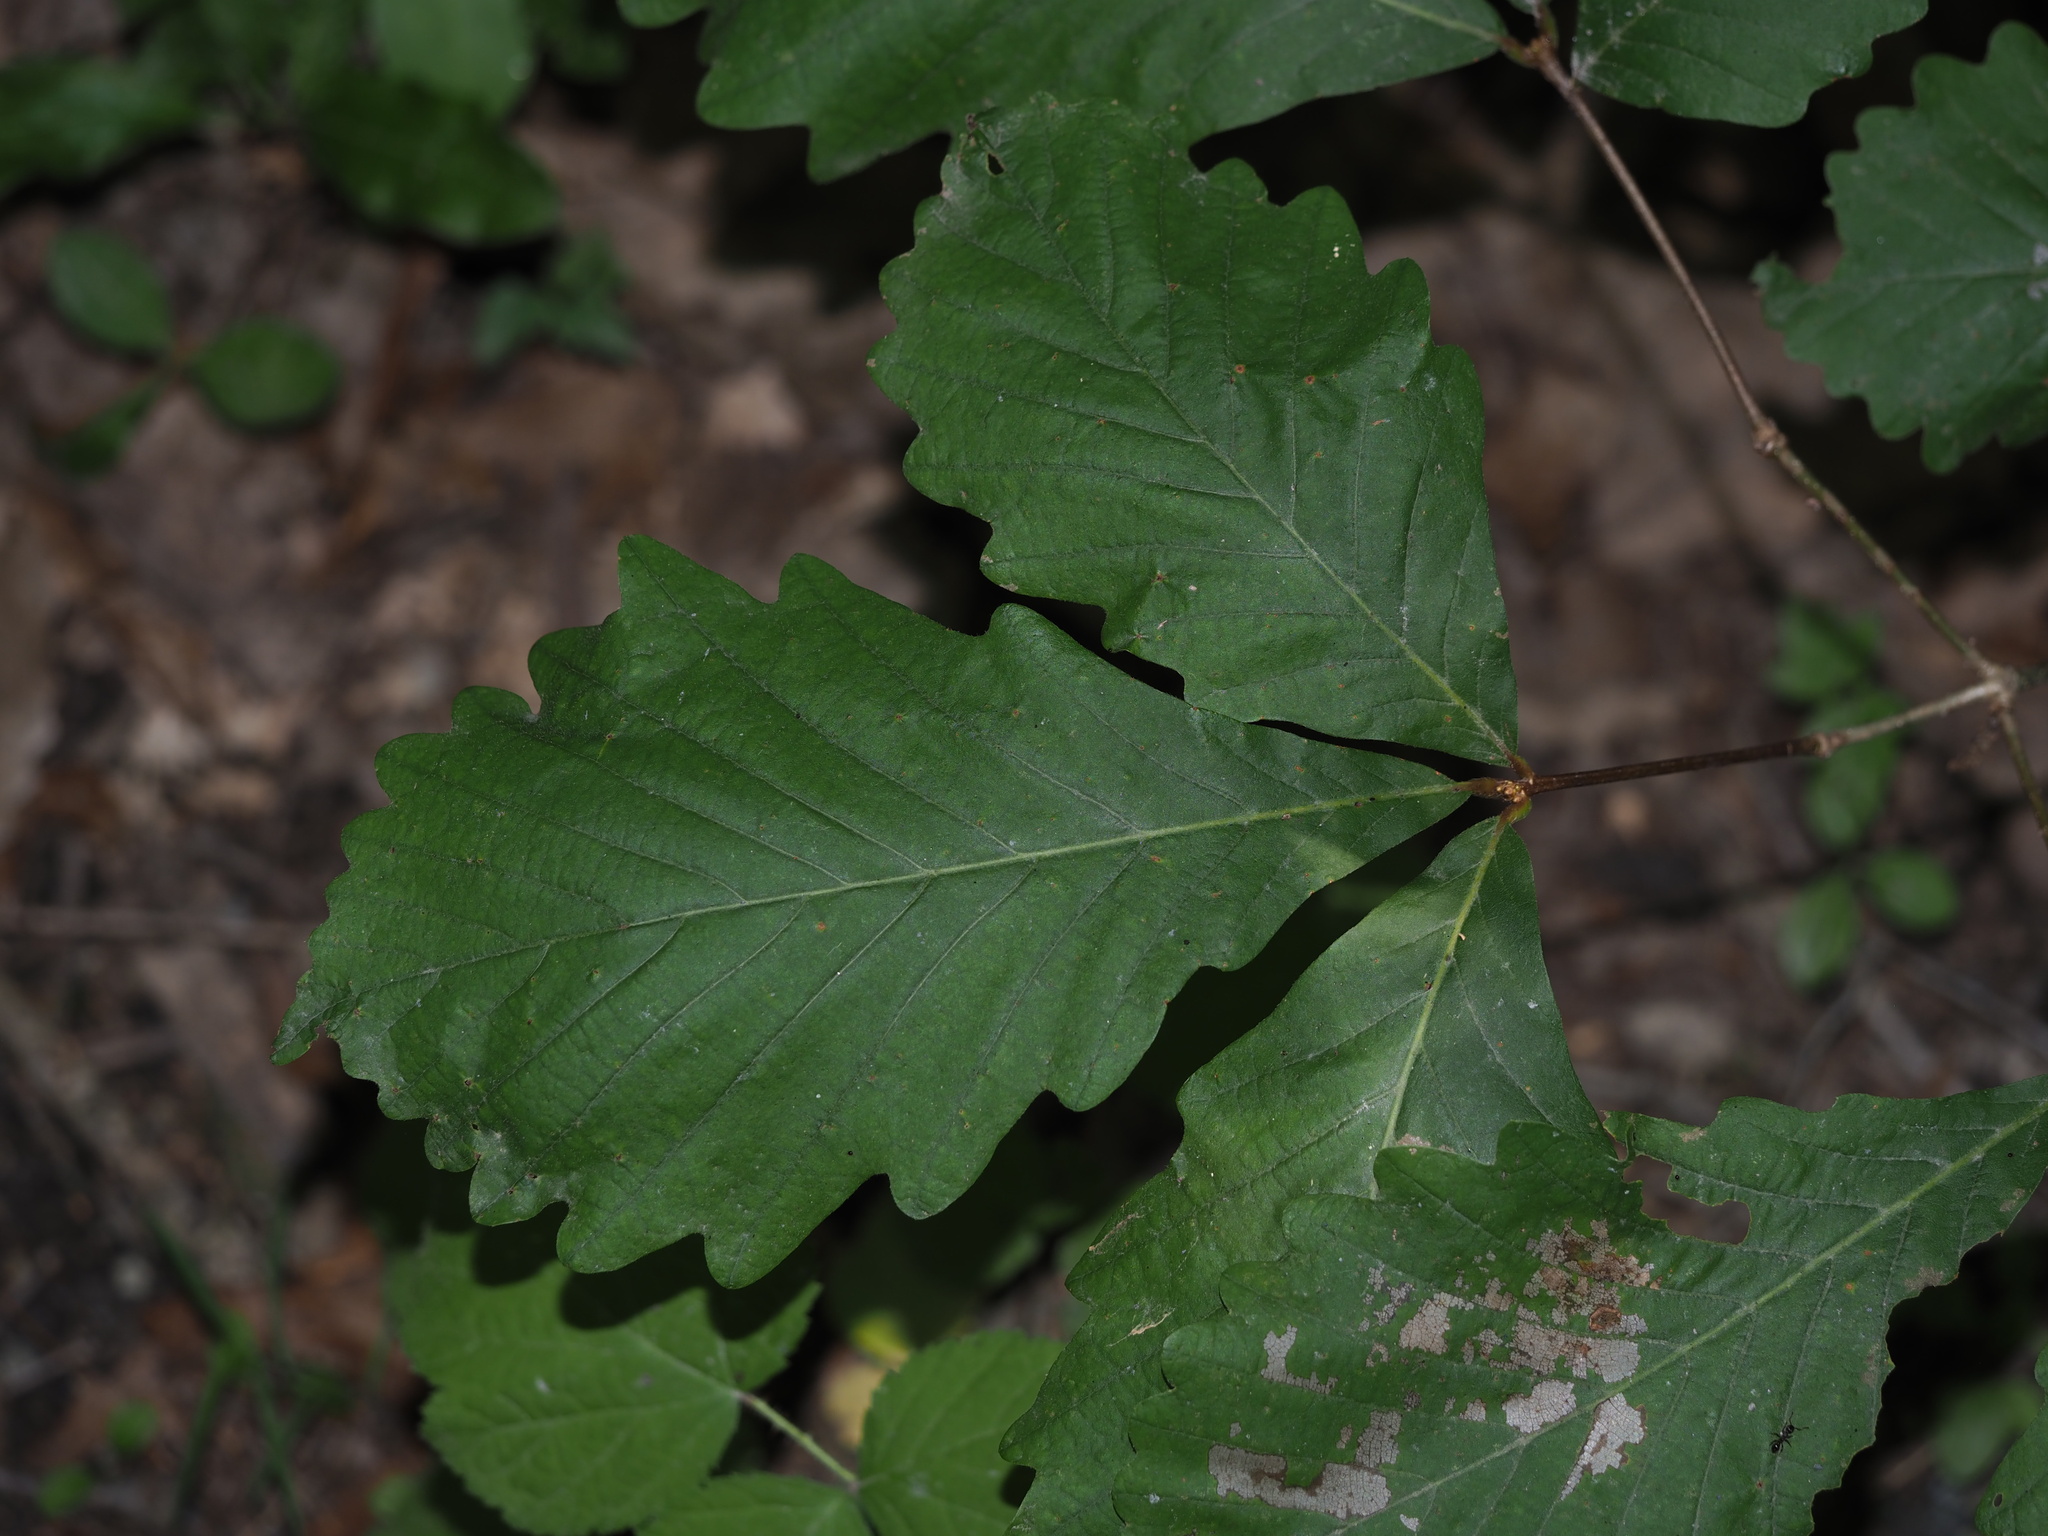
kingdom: Plantae
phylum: Tracheophyta
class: Magnoliopsida
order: Fagales
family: Fagaceae
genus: Quercus
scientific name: Quercus montana
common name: Chestnut oak
